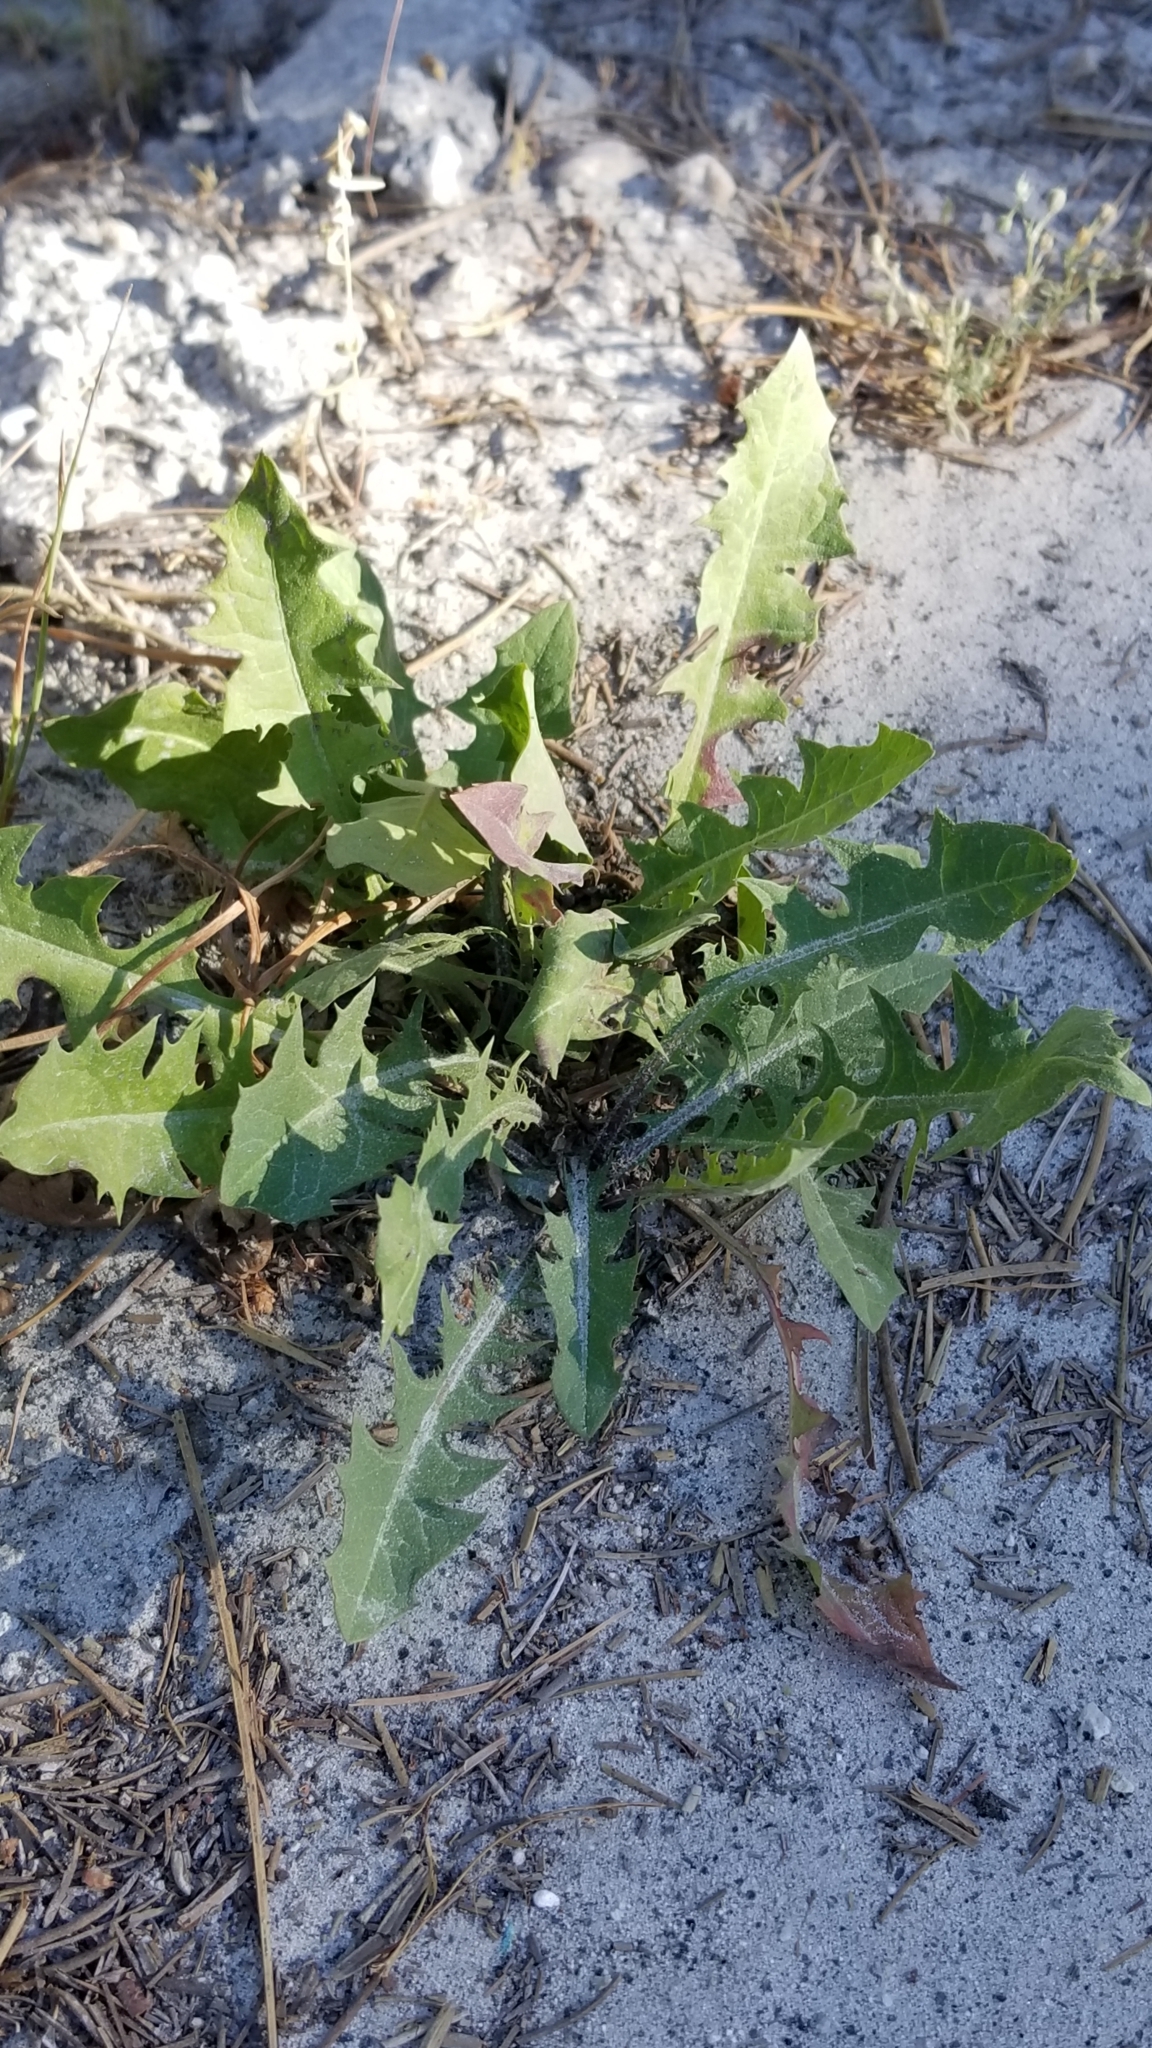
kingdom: Plantae
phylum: Tracheophyta
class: Magnoliopsida
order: Asterales
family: Asteraceae
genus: Taraxacum
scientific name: Taraxacum officinale
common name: Common dandelion
